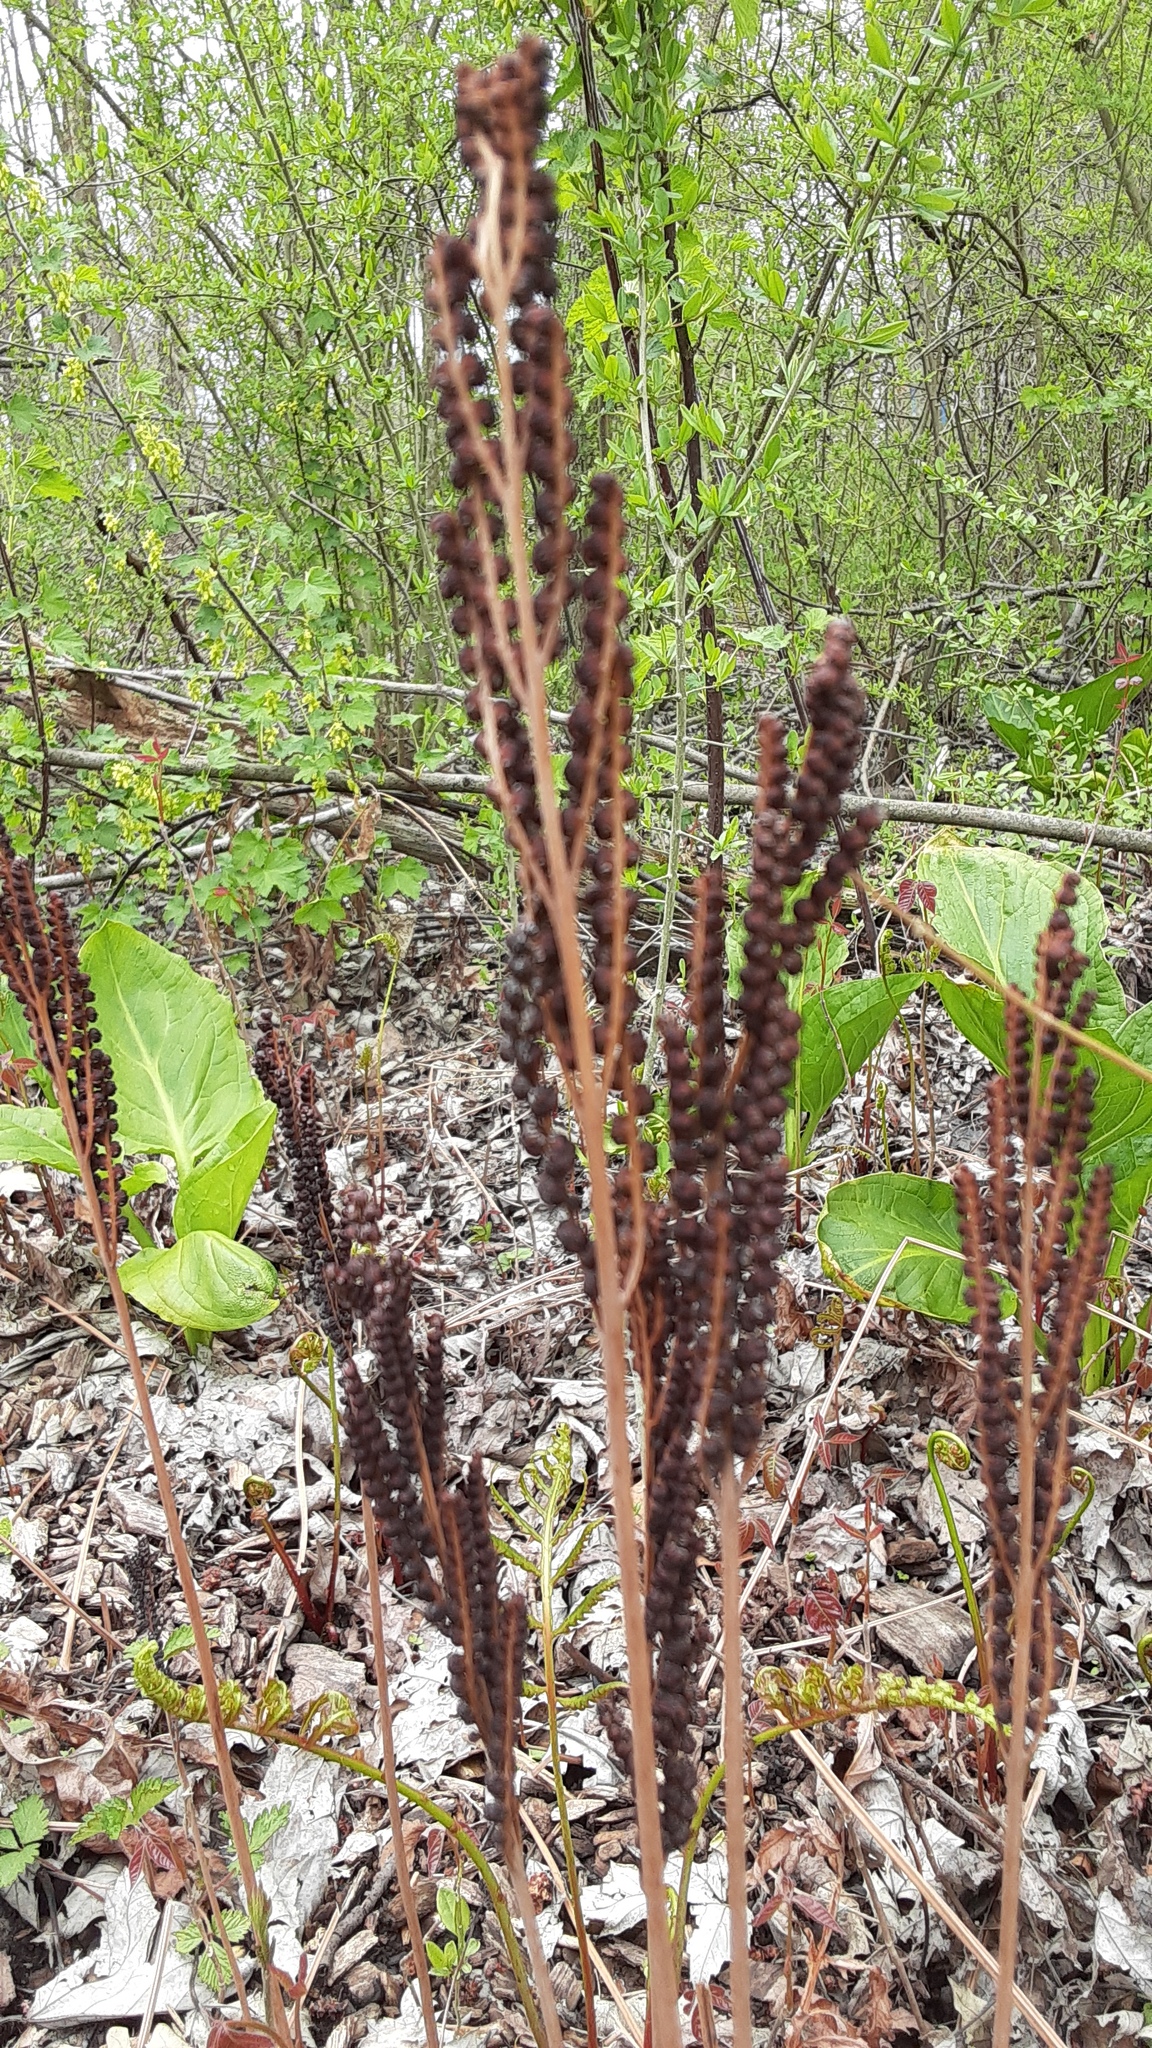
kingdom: Plantae
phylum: Tracheophyta
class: Polypodiopsida
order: Polypodiales
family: Onocleaceae
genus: Onoclea
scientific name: Onoclea sensibilis
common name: Sensitive fern
